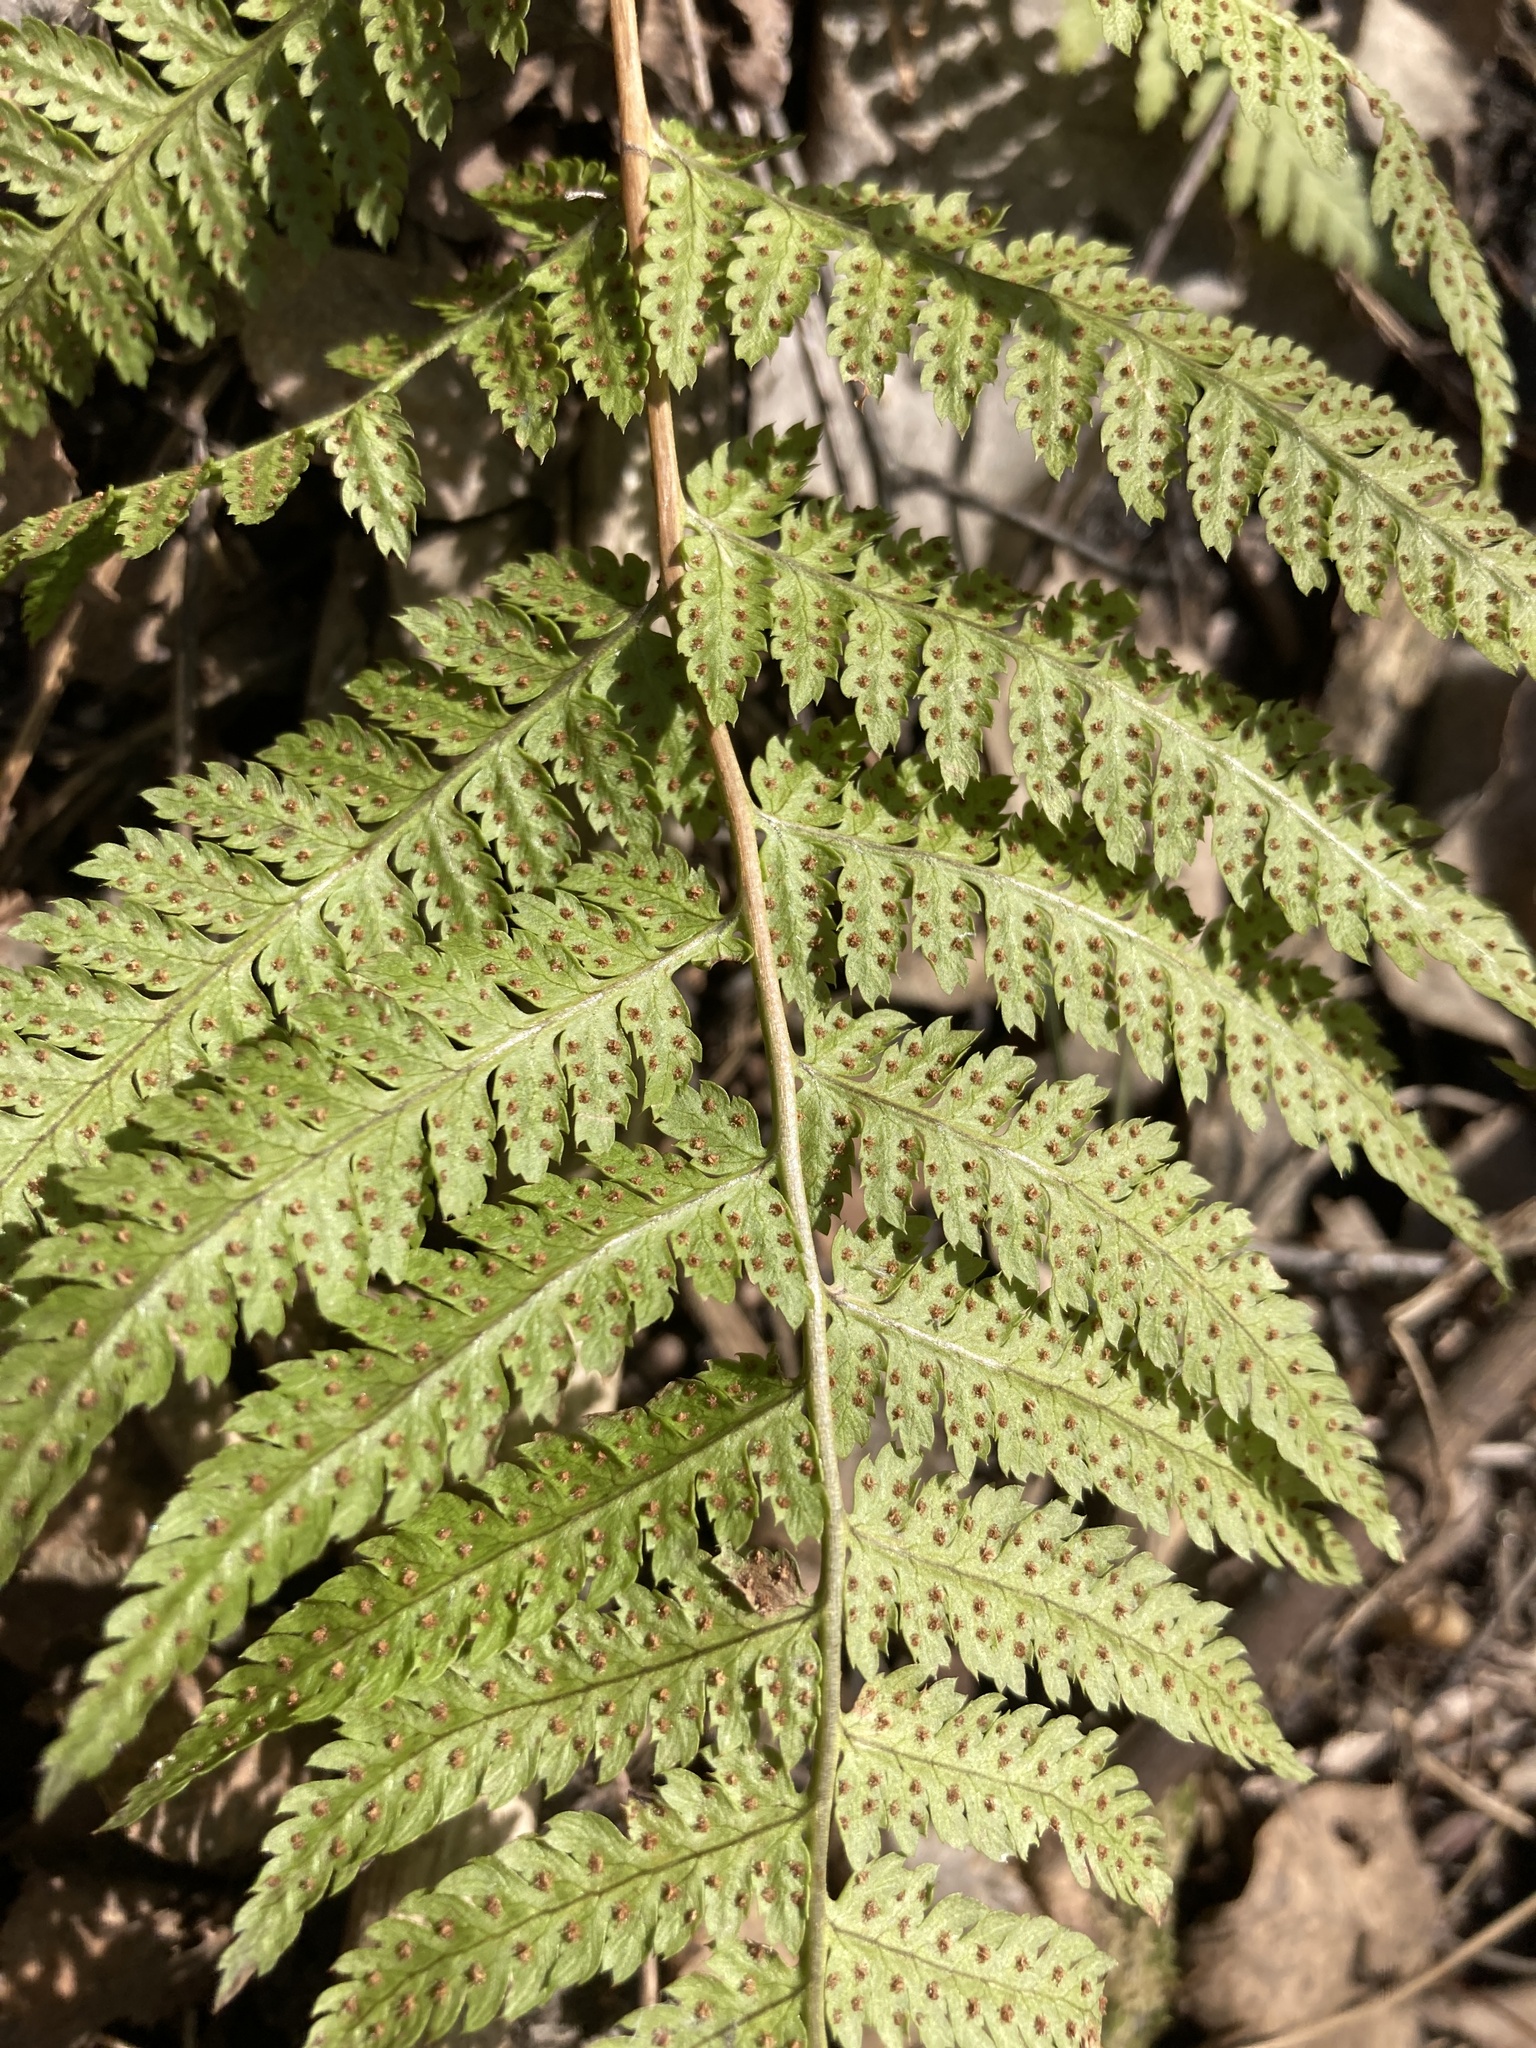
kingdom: Plantae
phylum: Tracheophyta
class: Polypodiopsida
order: Polypodiales
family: Dryopteridaceae
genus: Dryopteris
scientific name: Dryopteris carthusiana
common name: Narrow buckler-fern
